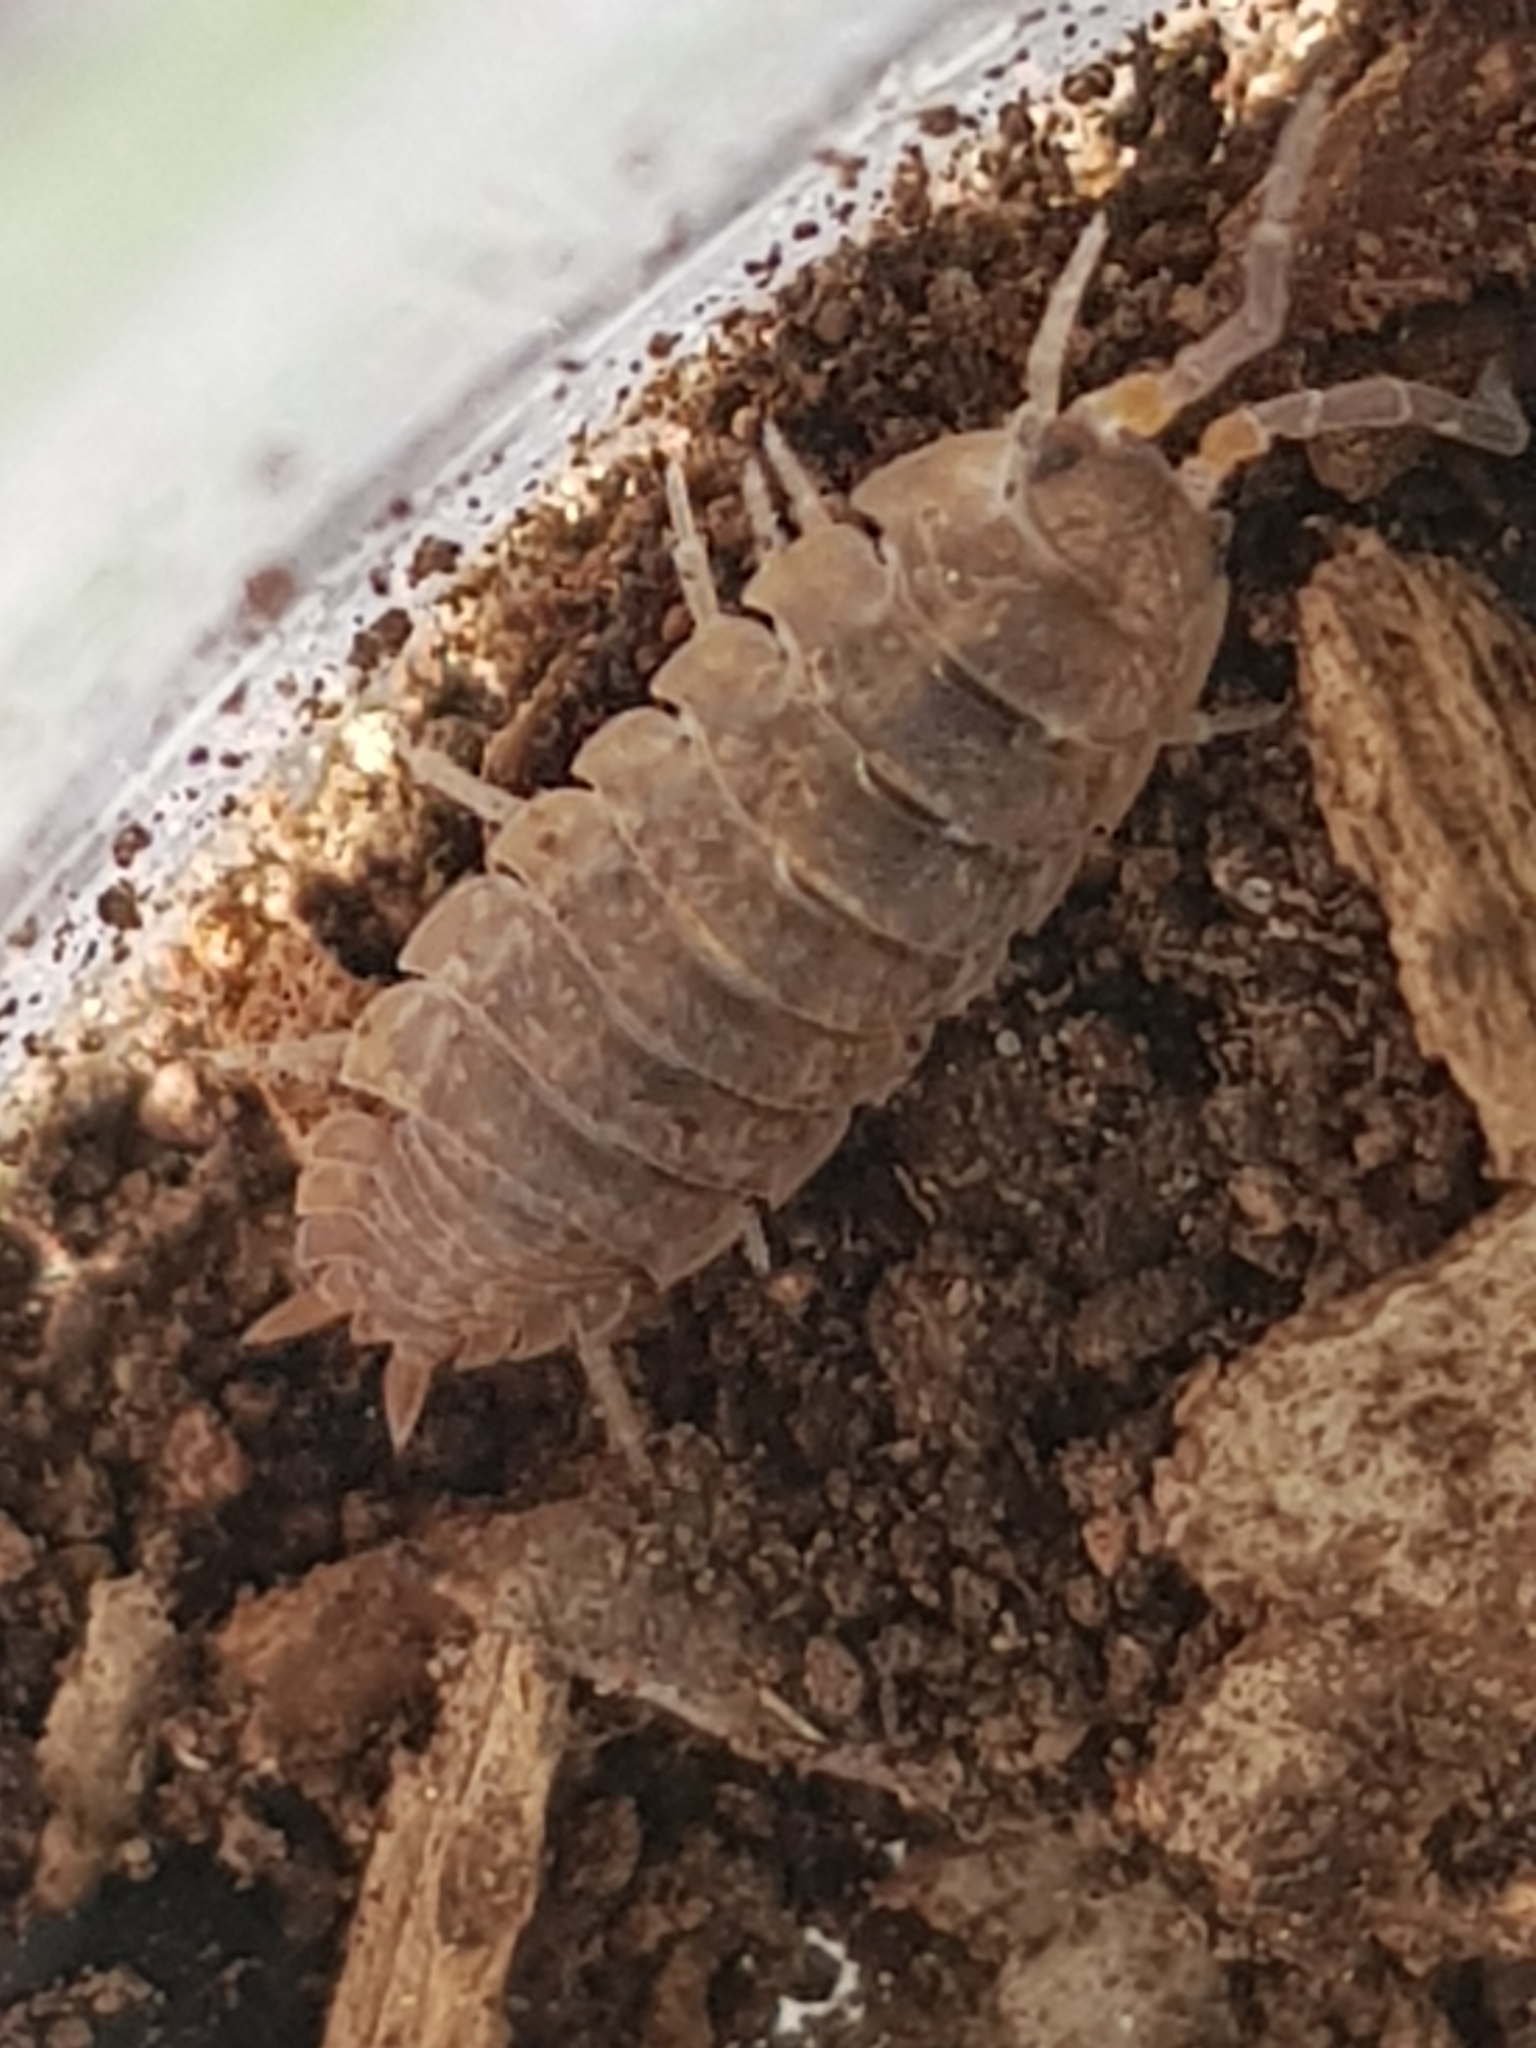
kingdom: Animalia
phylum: Arthropoda
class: Malacostraca
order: Isopoda
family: Porcellionidae
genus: Porcellio
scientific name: Porcellio scaber
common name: Common rough woodlouse
